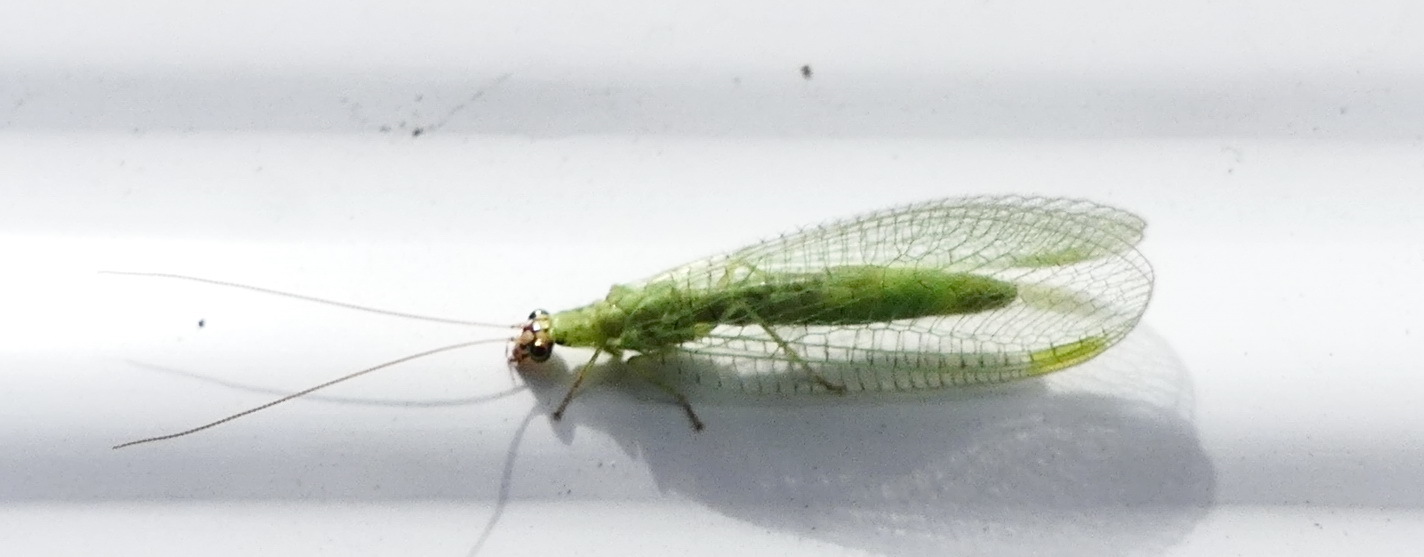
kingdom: Animalia
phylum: Arthropoda
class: Insecta
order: Neuroptera
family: Chrysopidae
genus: Chrysopa
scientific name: Chrysopa oculata
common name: Golden-eyed lacewing
